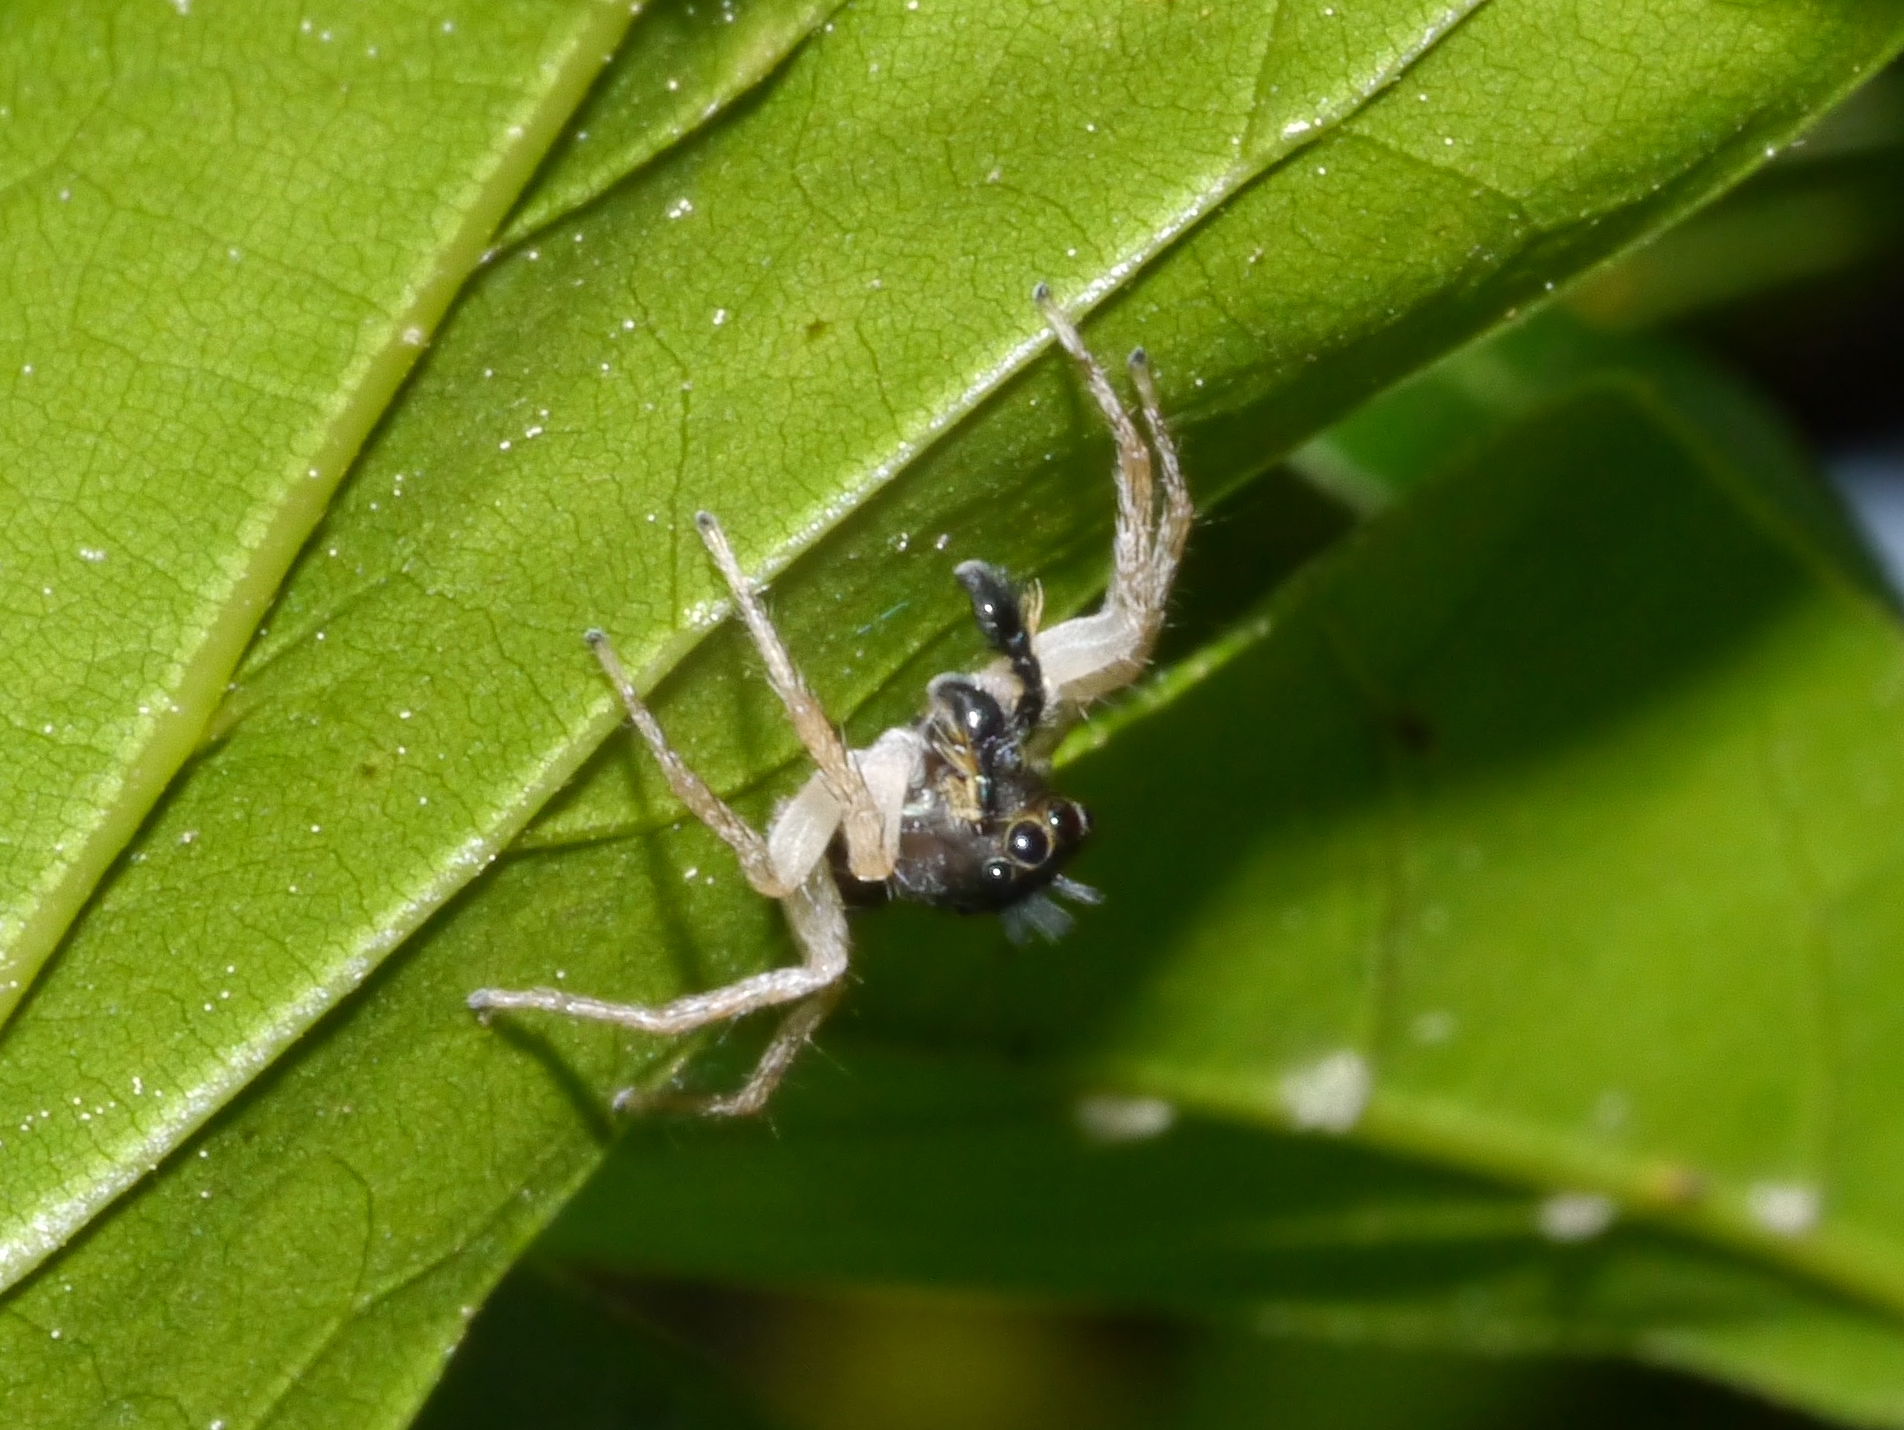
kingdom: Animalia
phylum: Arthropoda
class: Arachnida
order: Araneae
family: Salticidae
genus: Maevia
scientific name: Maevia inclemens
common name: Dimorphic jumper
